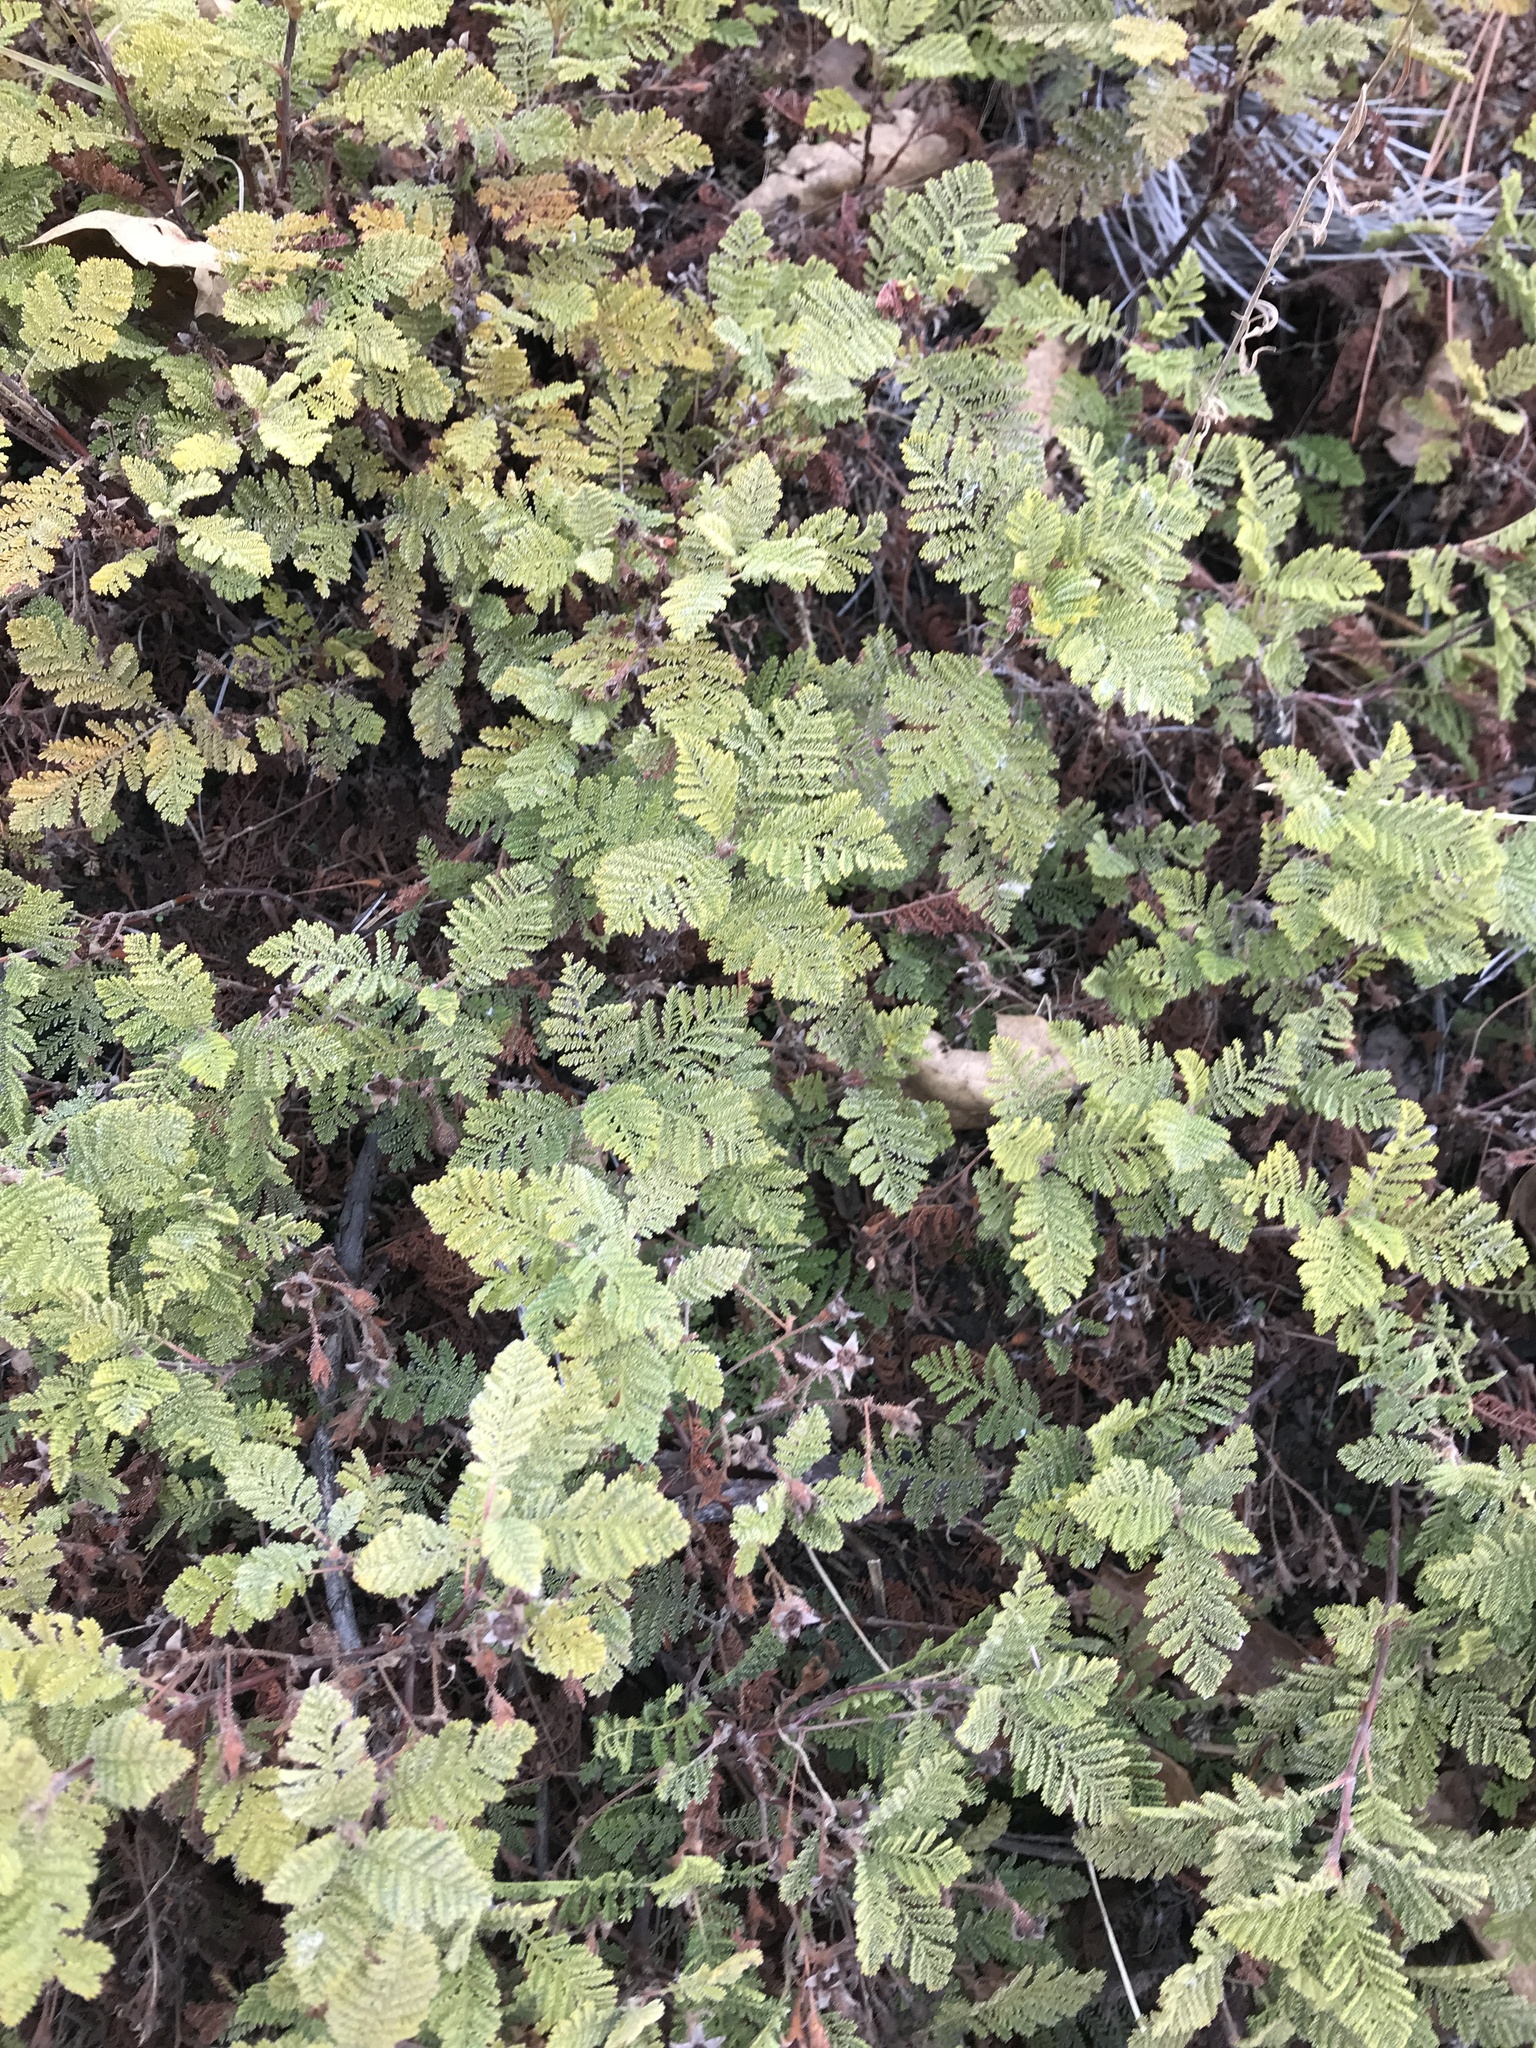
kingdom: Plantae
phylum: Tracheophyta
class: Magnoliopsida
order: Rosales
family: Rosaceae
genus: Chamaebatia
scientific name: Chamaebatia foliolosa
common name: Mountain misery
